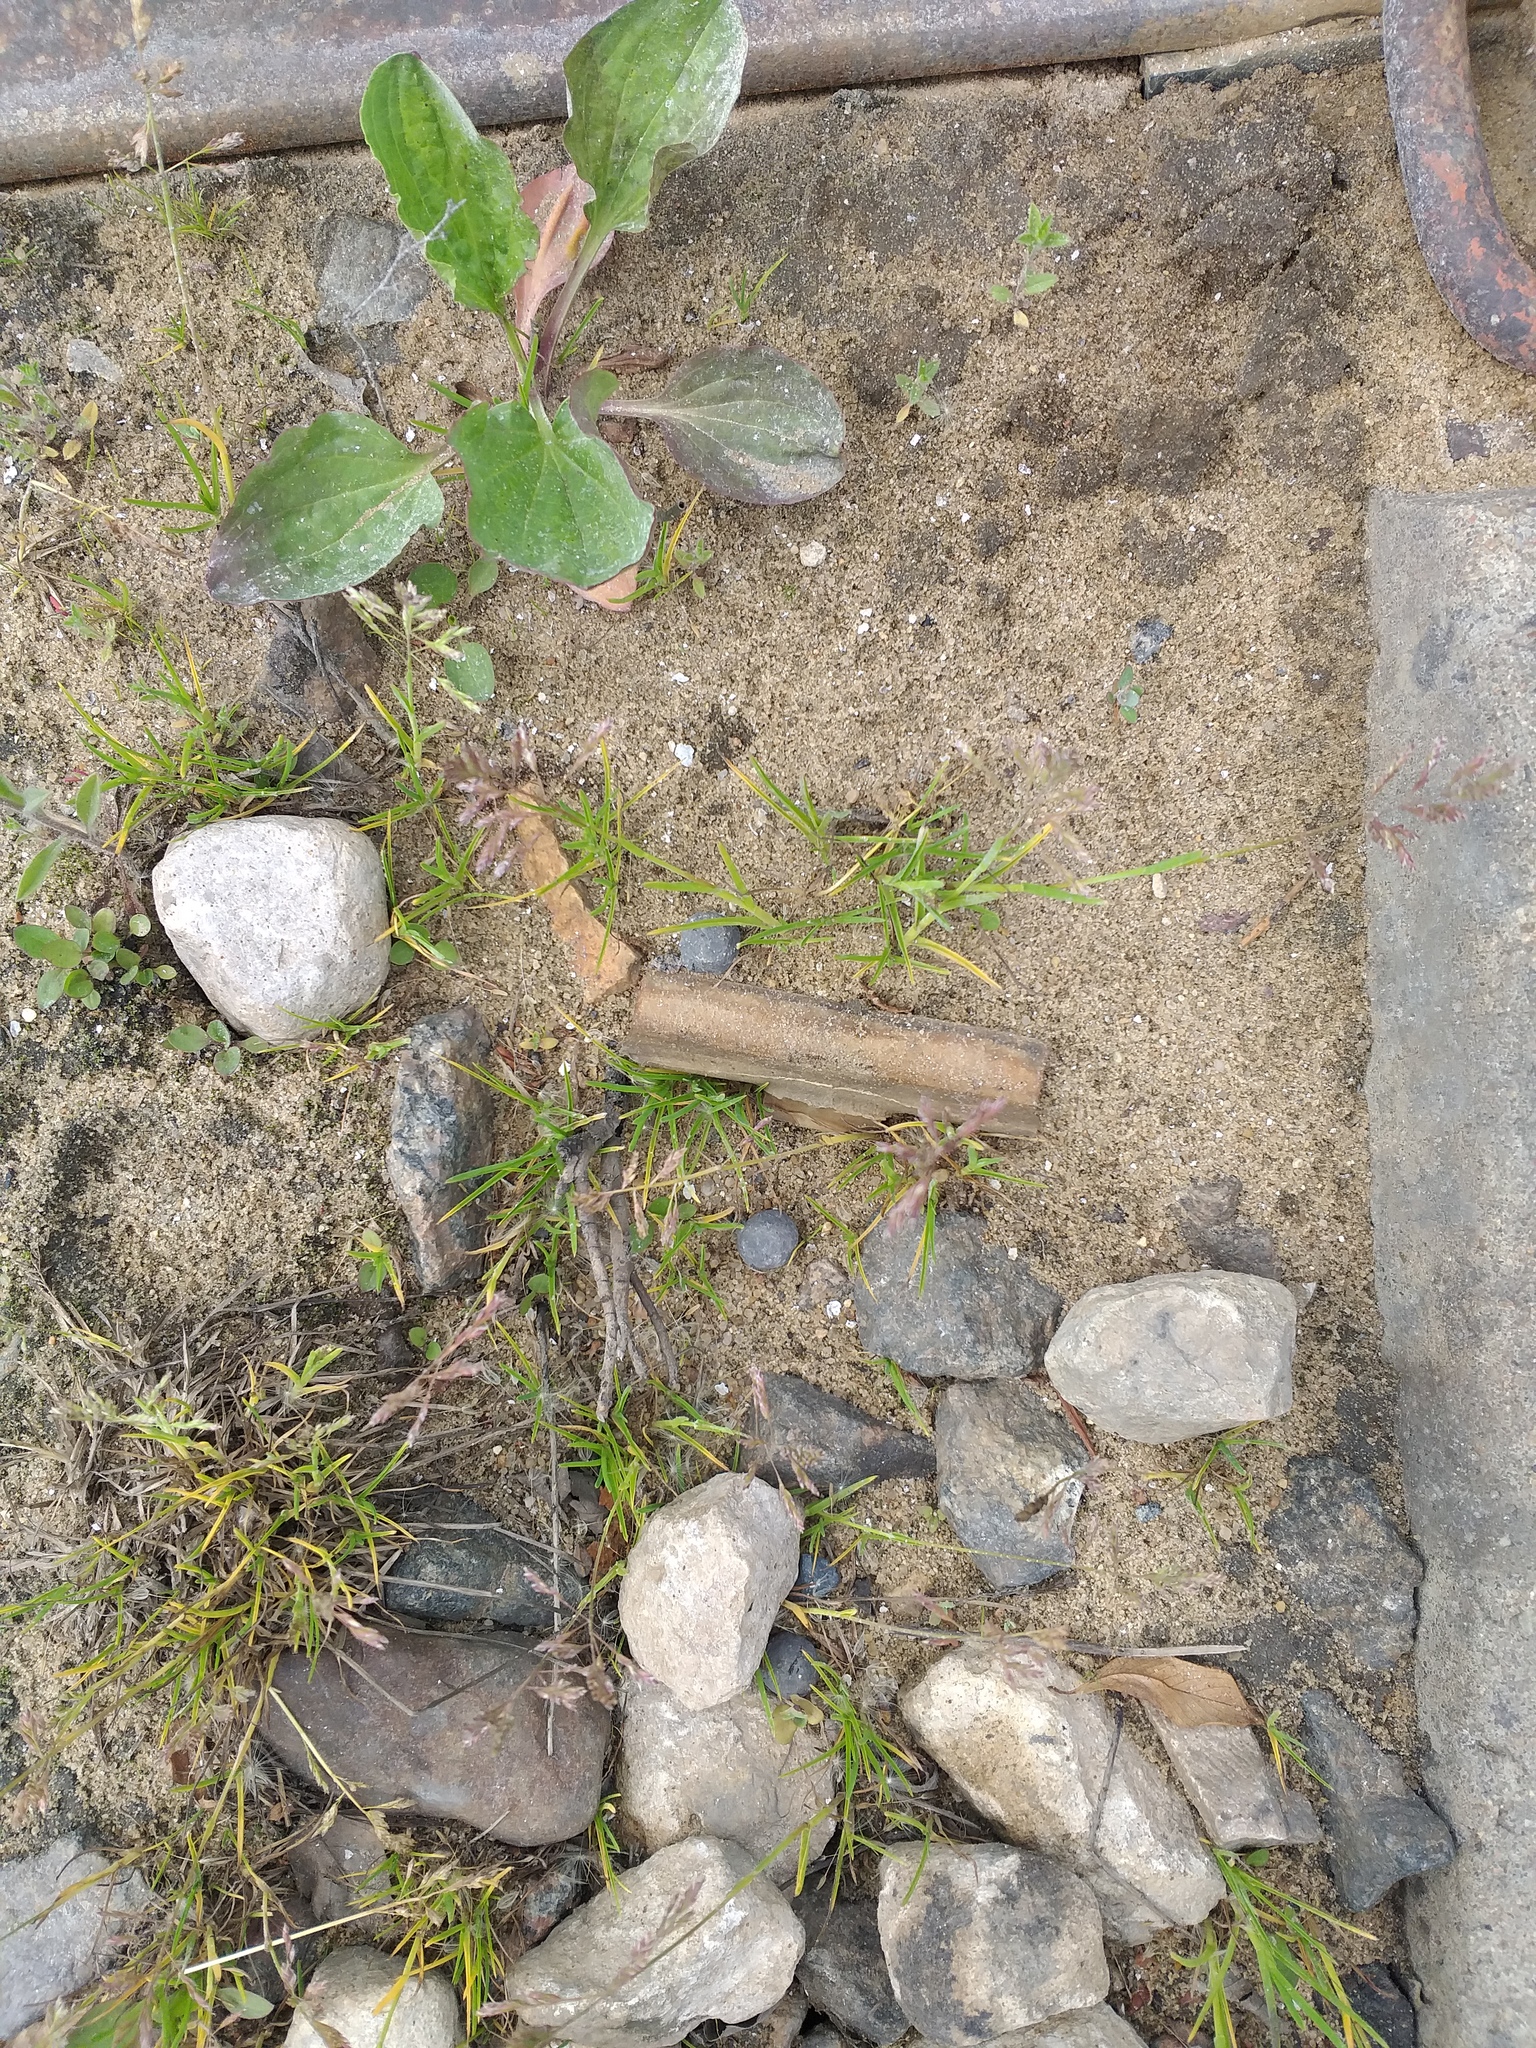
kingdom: Plantae
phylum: Tracheophyta
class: Liliopsida
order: Poales
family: Poaceae
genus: Poa
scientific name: Poa annua
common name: Annual bluegrass
